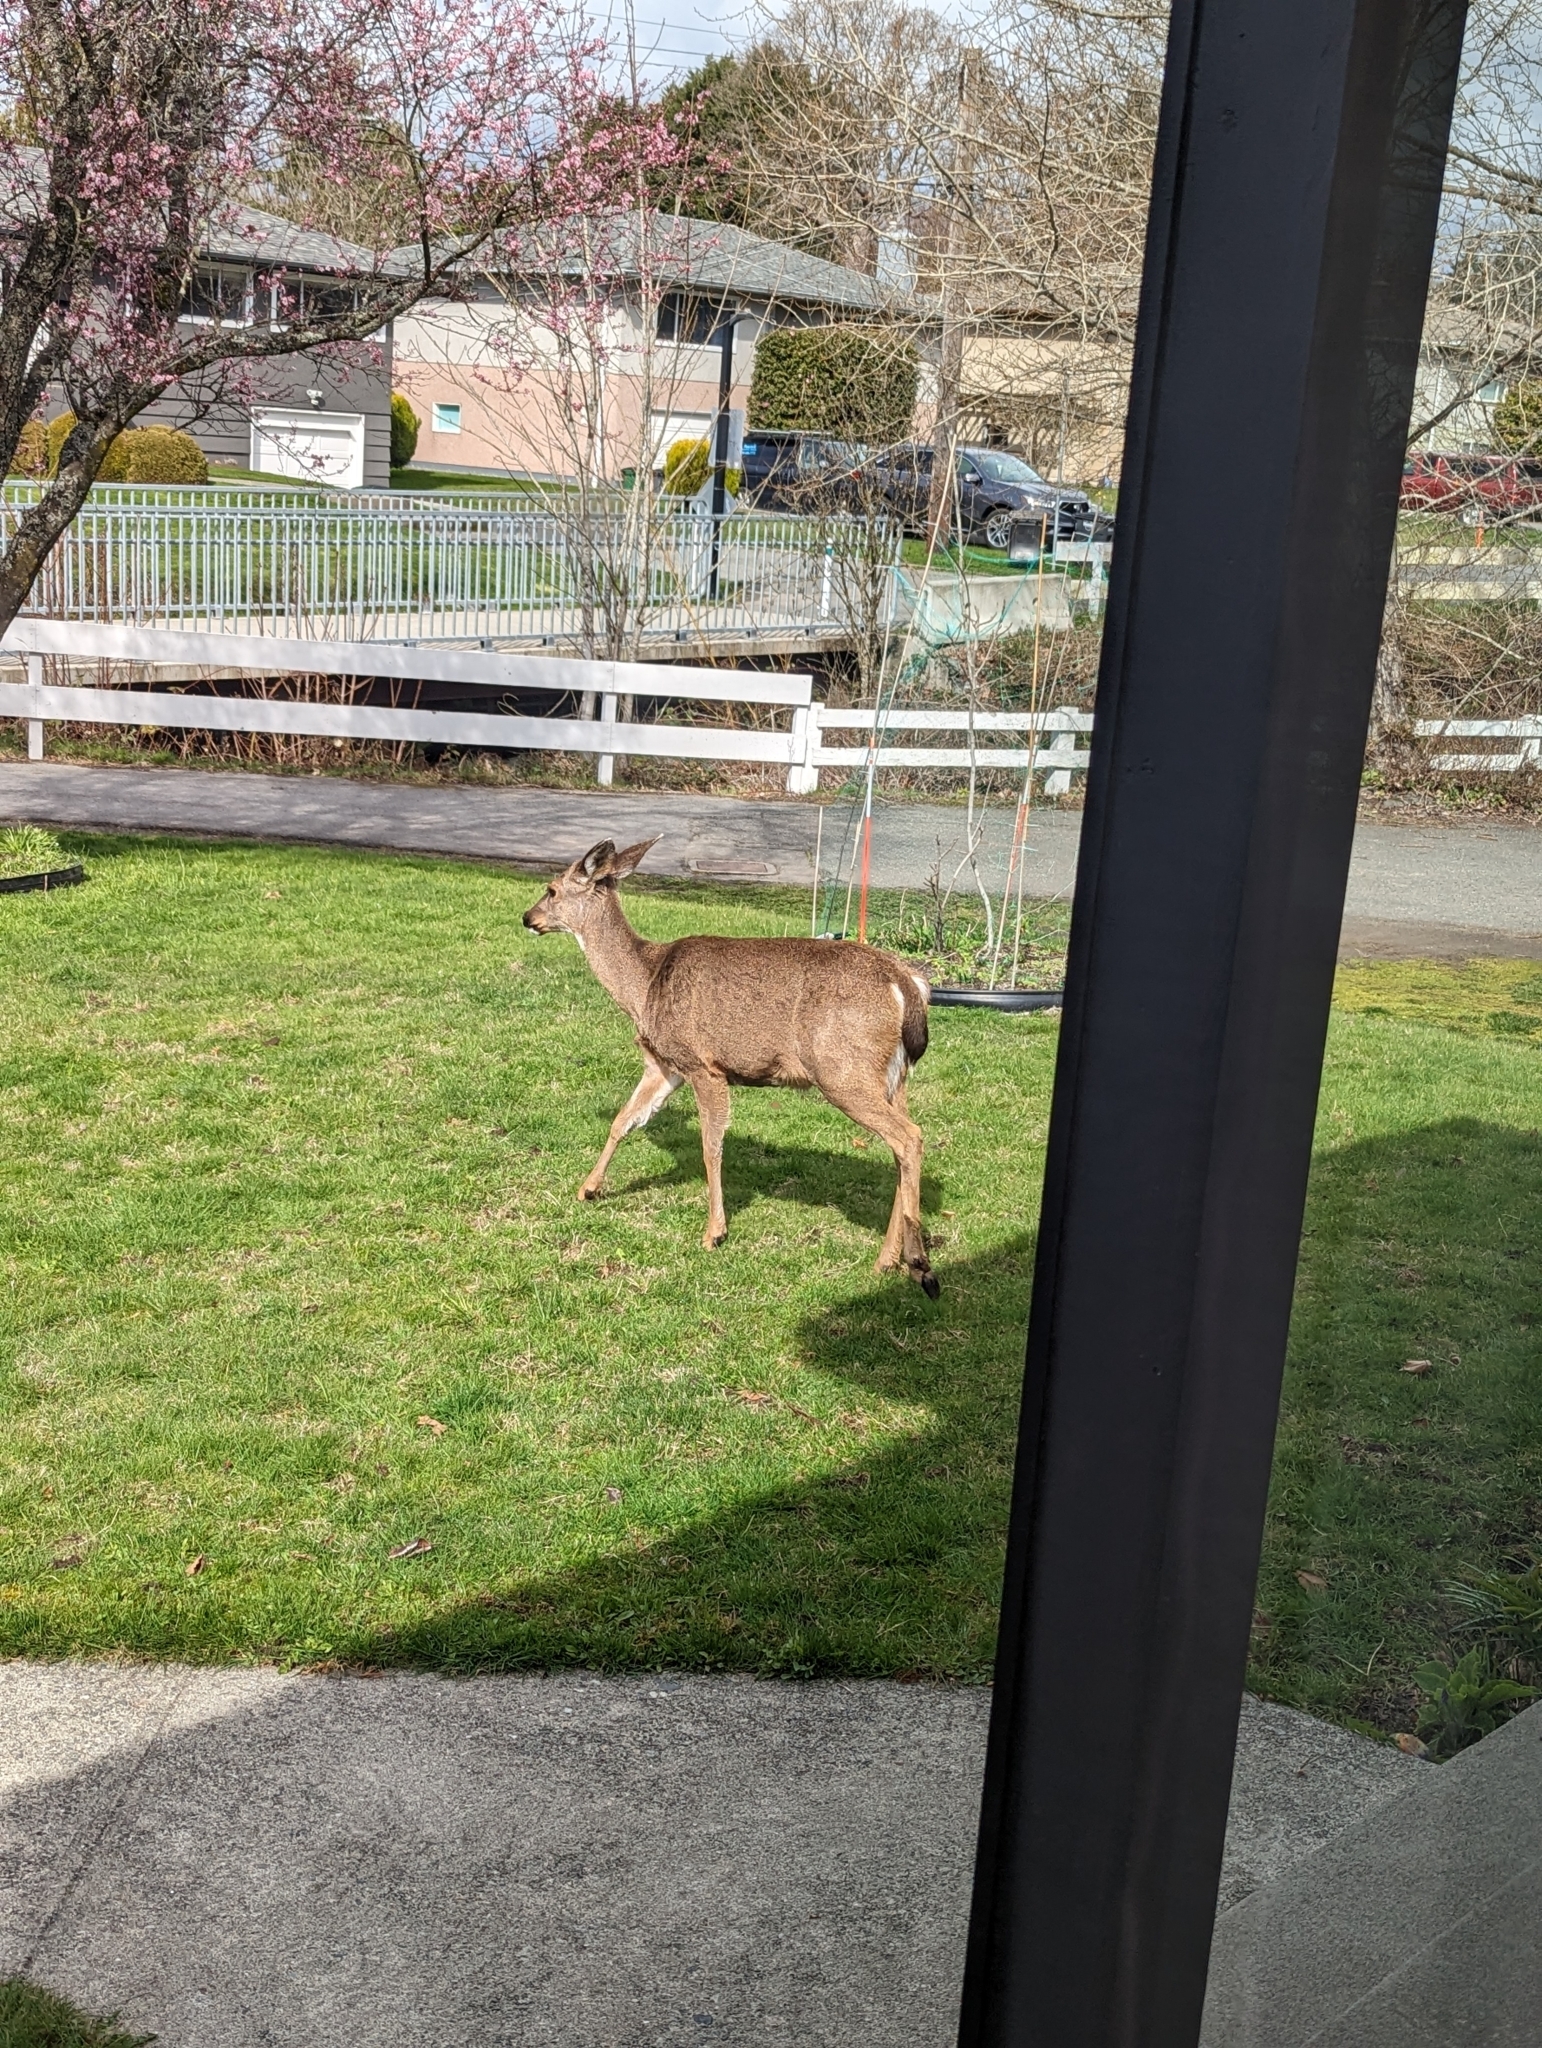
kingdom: Animalia
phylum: Chordata
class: Mammalia
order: Artiodactyla
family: Cervidae
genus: Odocoileus
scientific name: Odocoileus hemionus
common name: Mule deer
